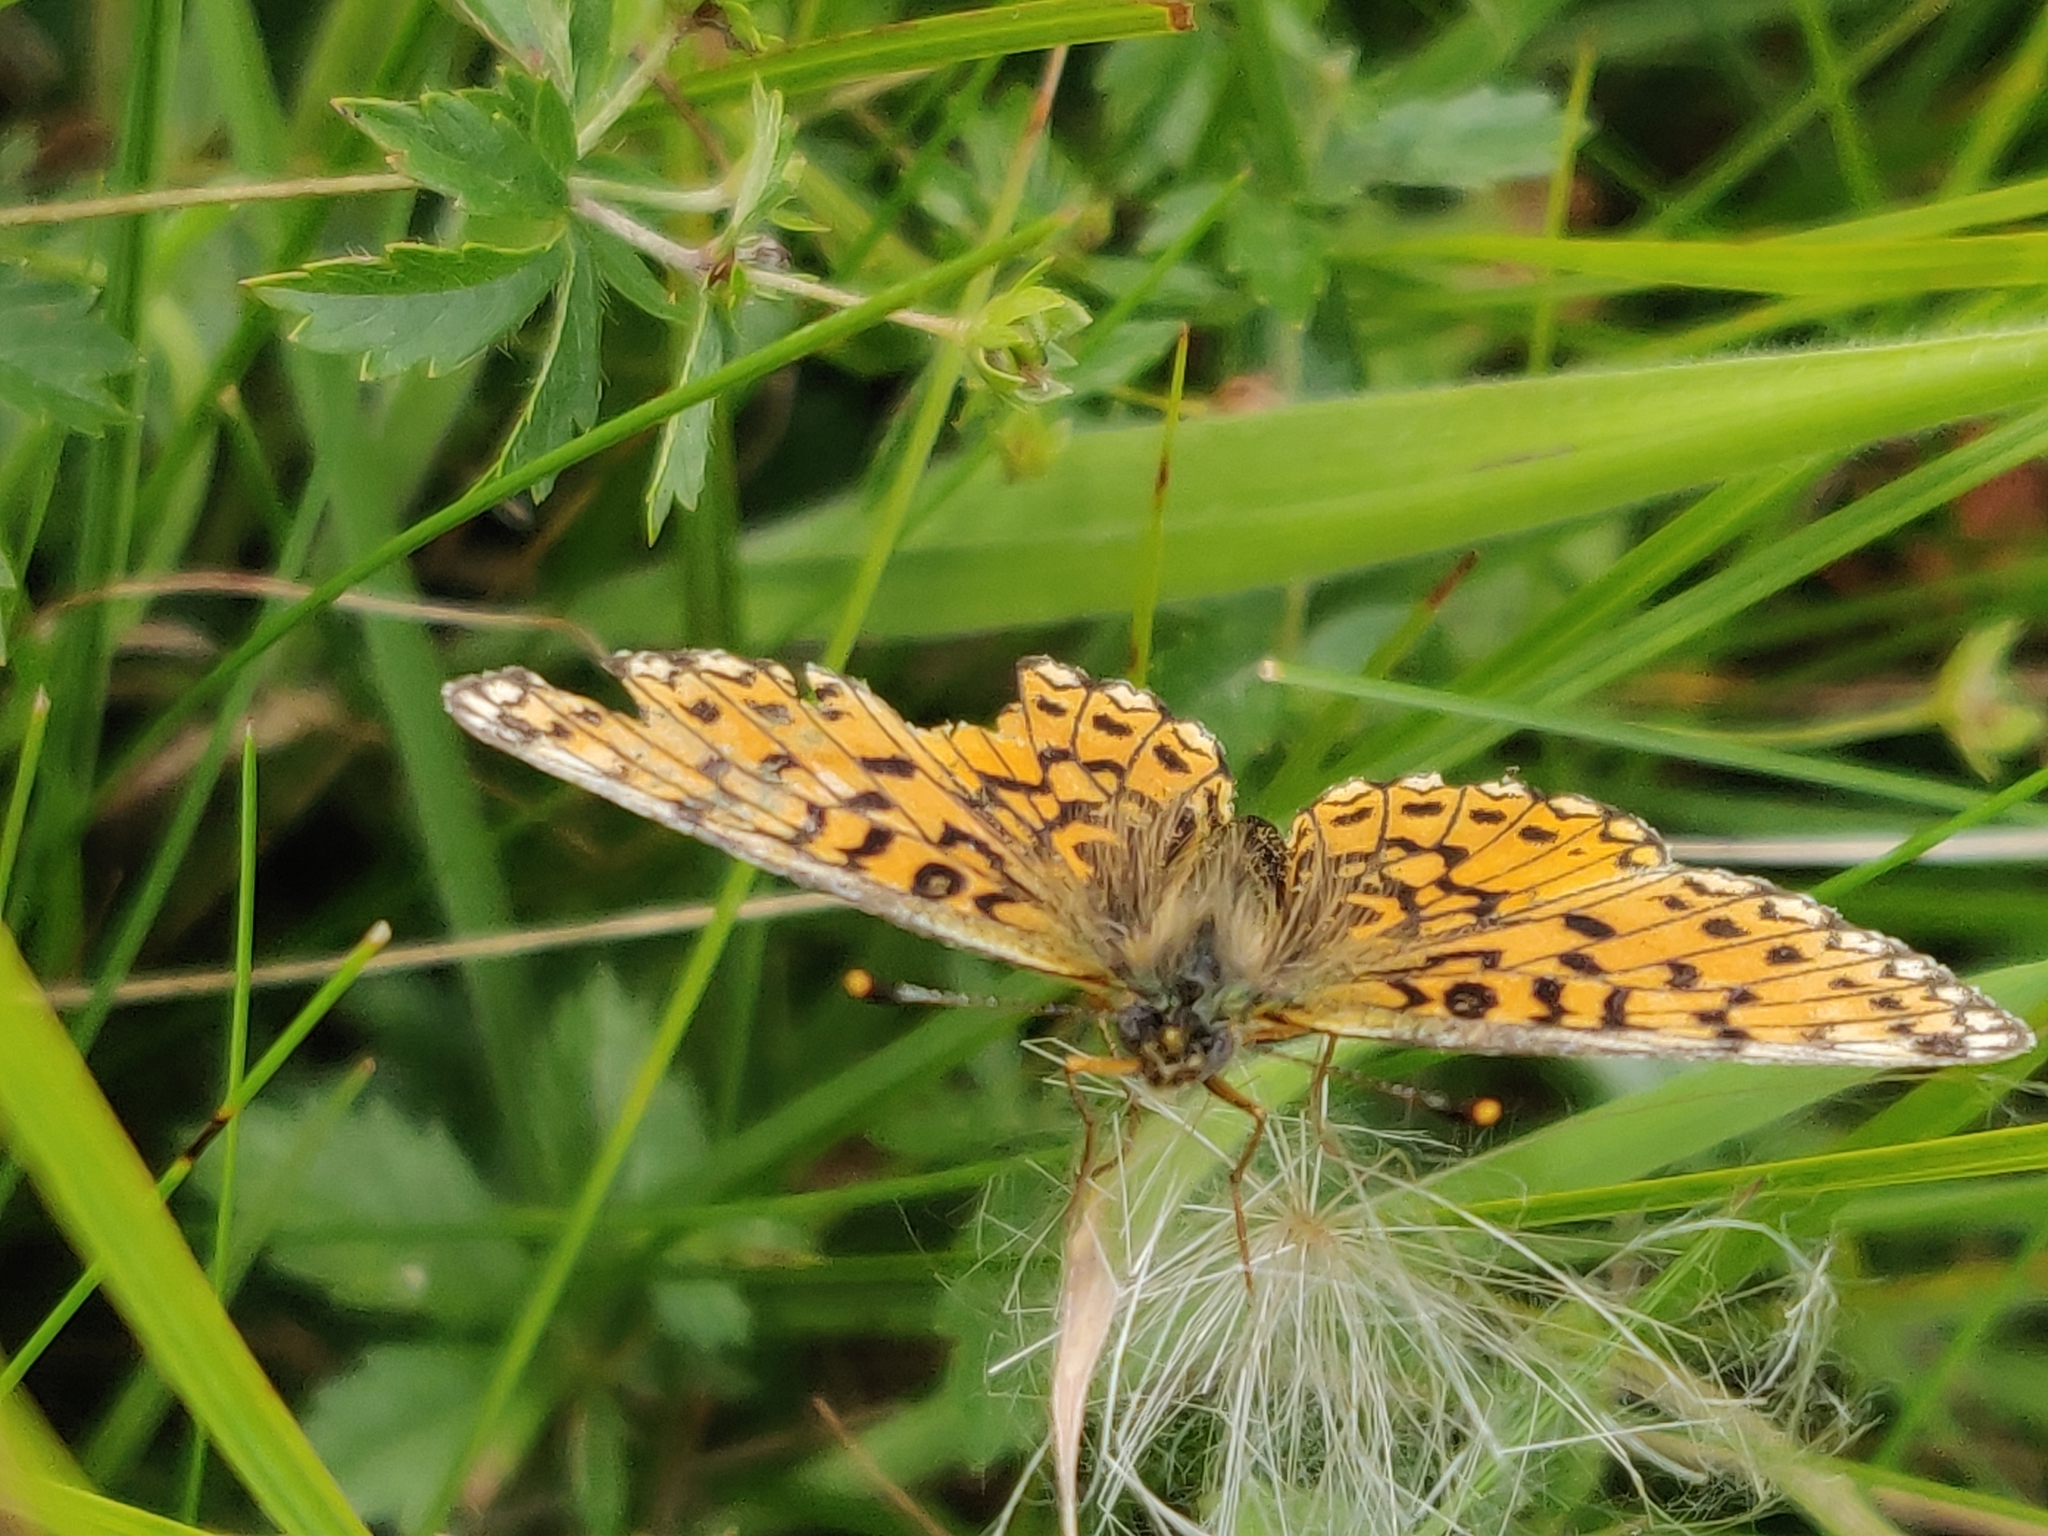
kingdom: Animalia
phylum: Arthropoda
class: Insecta
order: Lepidoptera
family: Nymphalidae
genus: Boloria
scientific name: Boloria selene
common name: Small pearl-bordered fritillary
